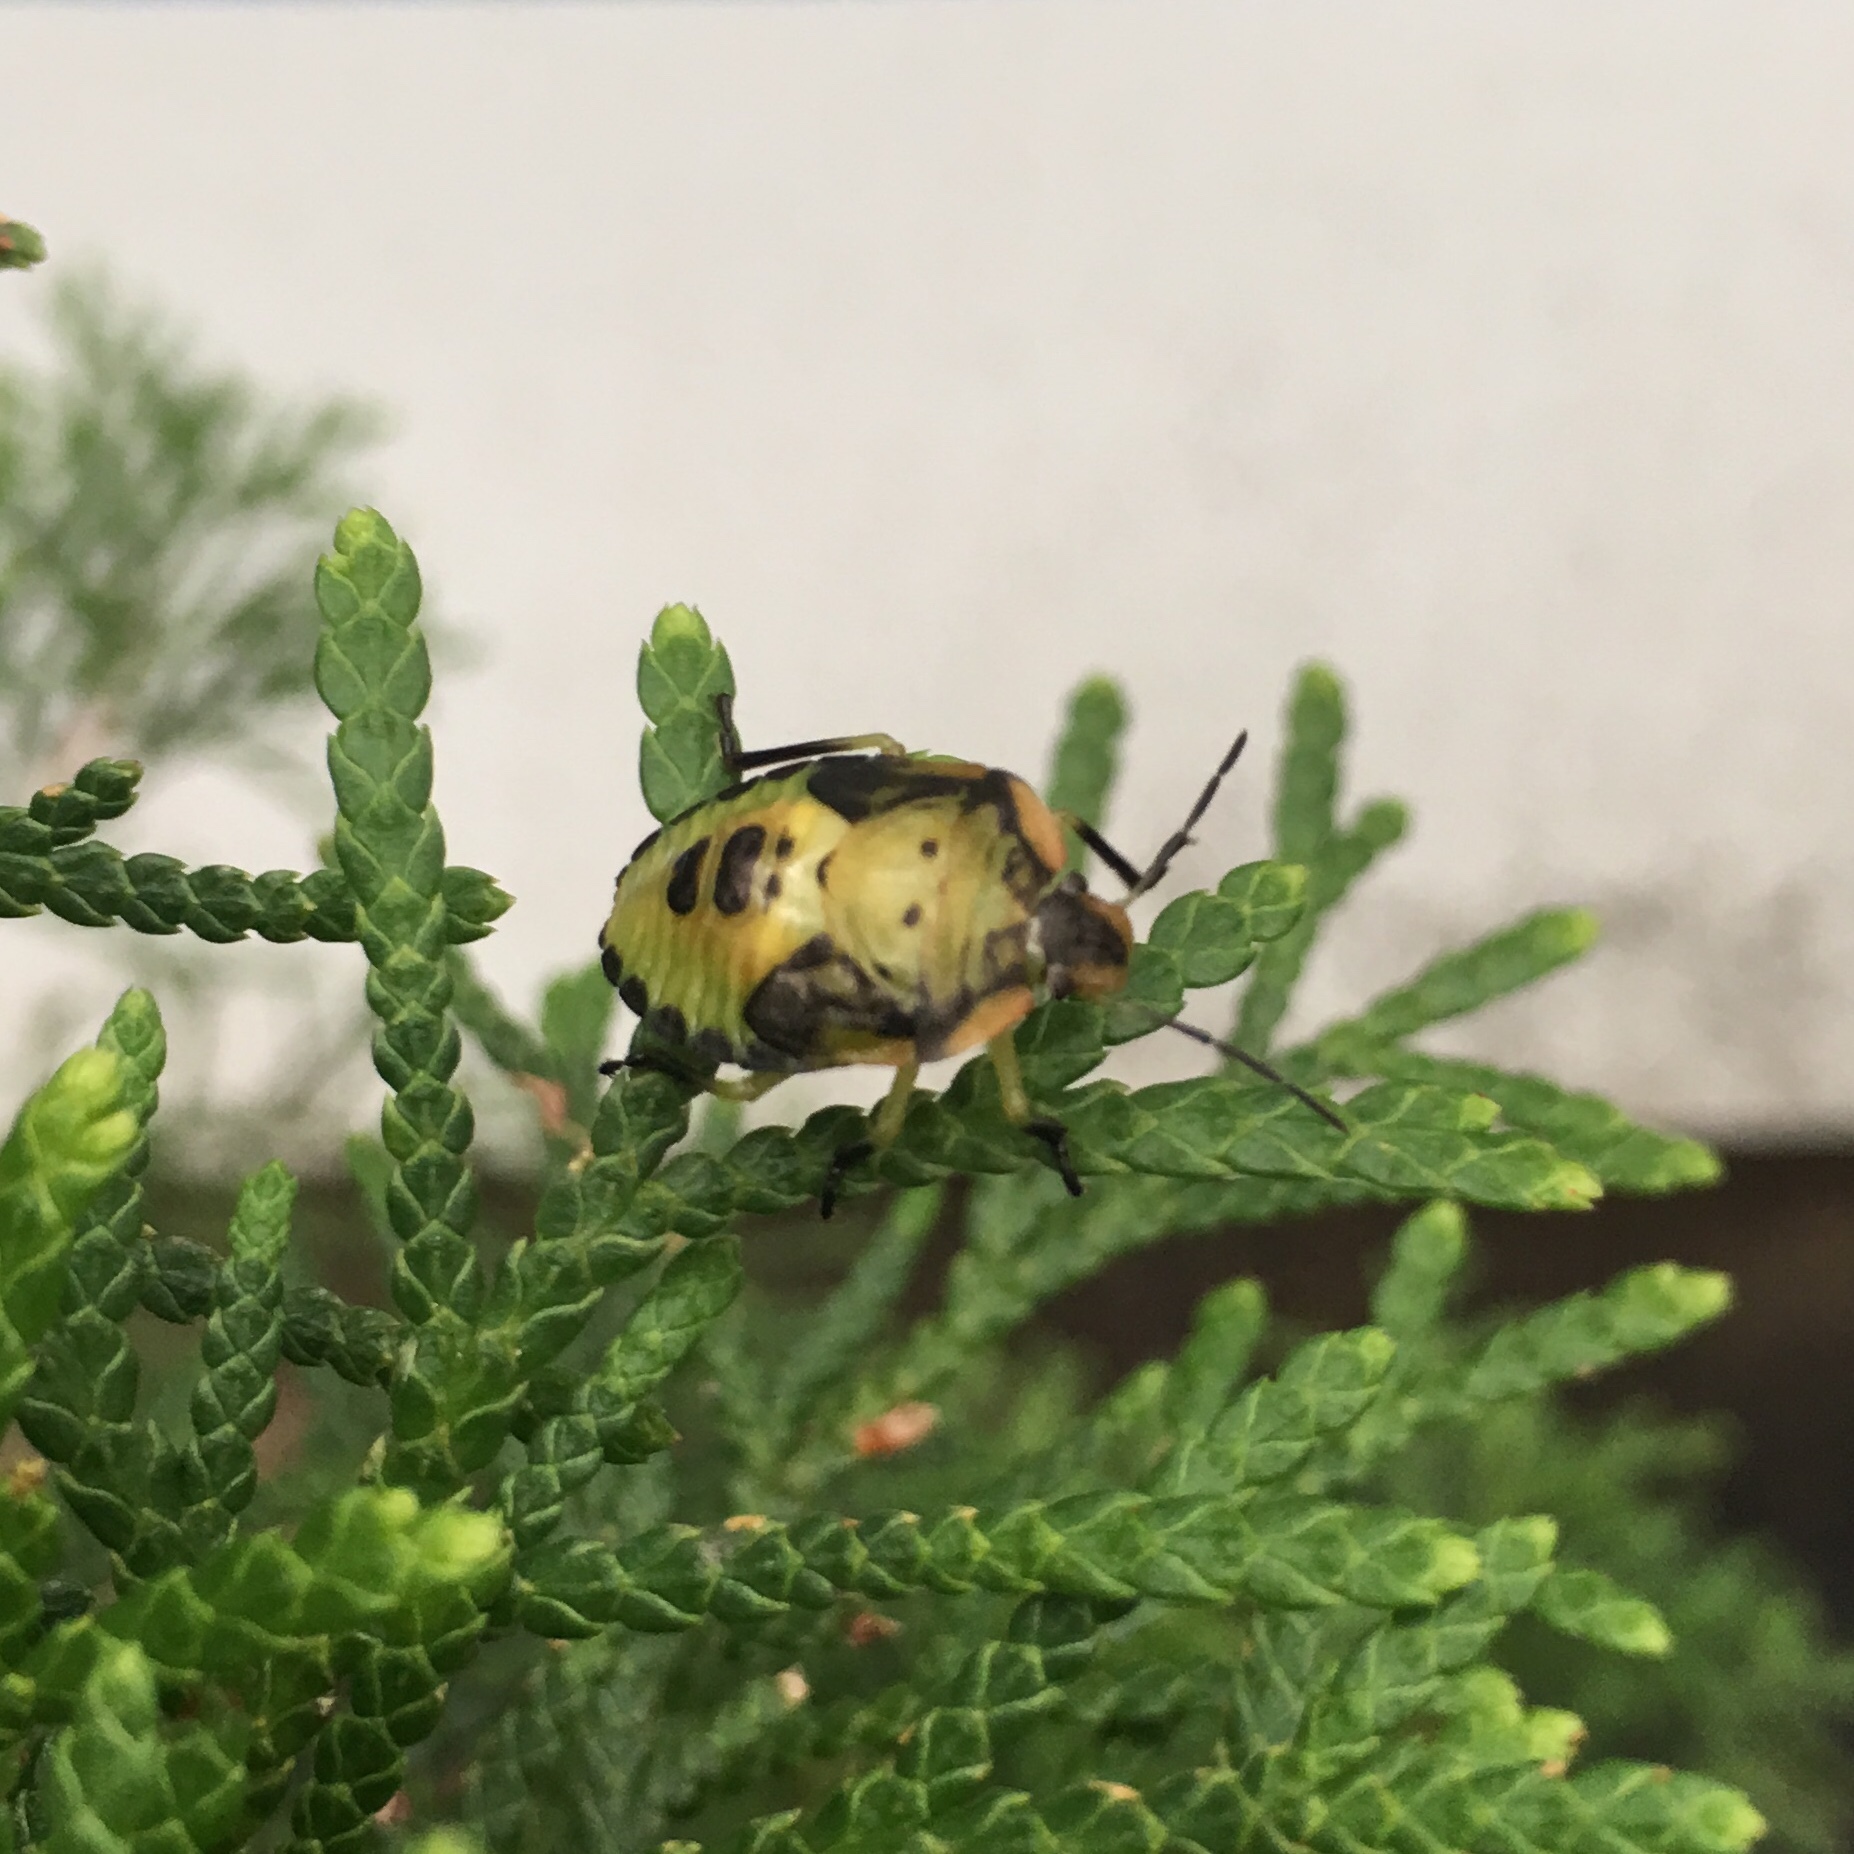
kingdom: Animalia
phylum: Arthropoda
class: Insecta
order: Hemiptera
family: Pentatomidae
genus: Chinavia
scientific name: Chinavia hilaris
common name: Green stink bug
